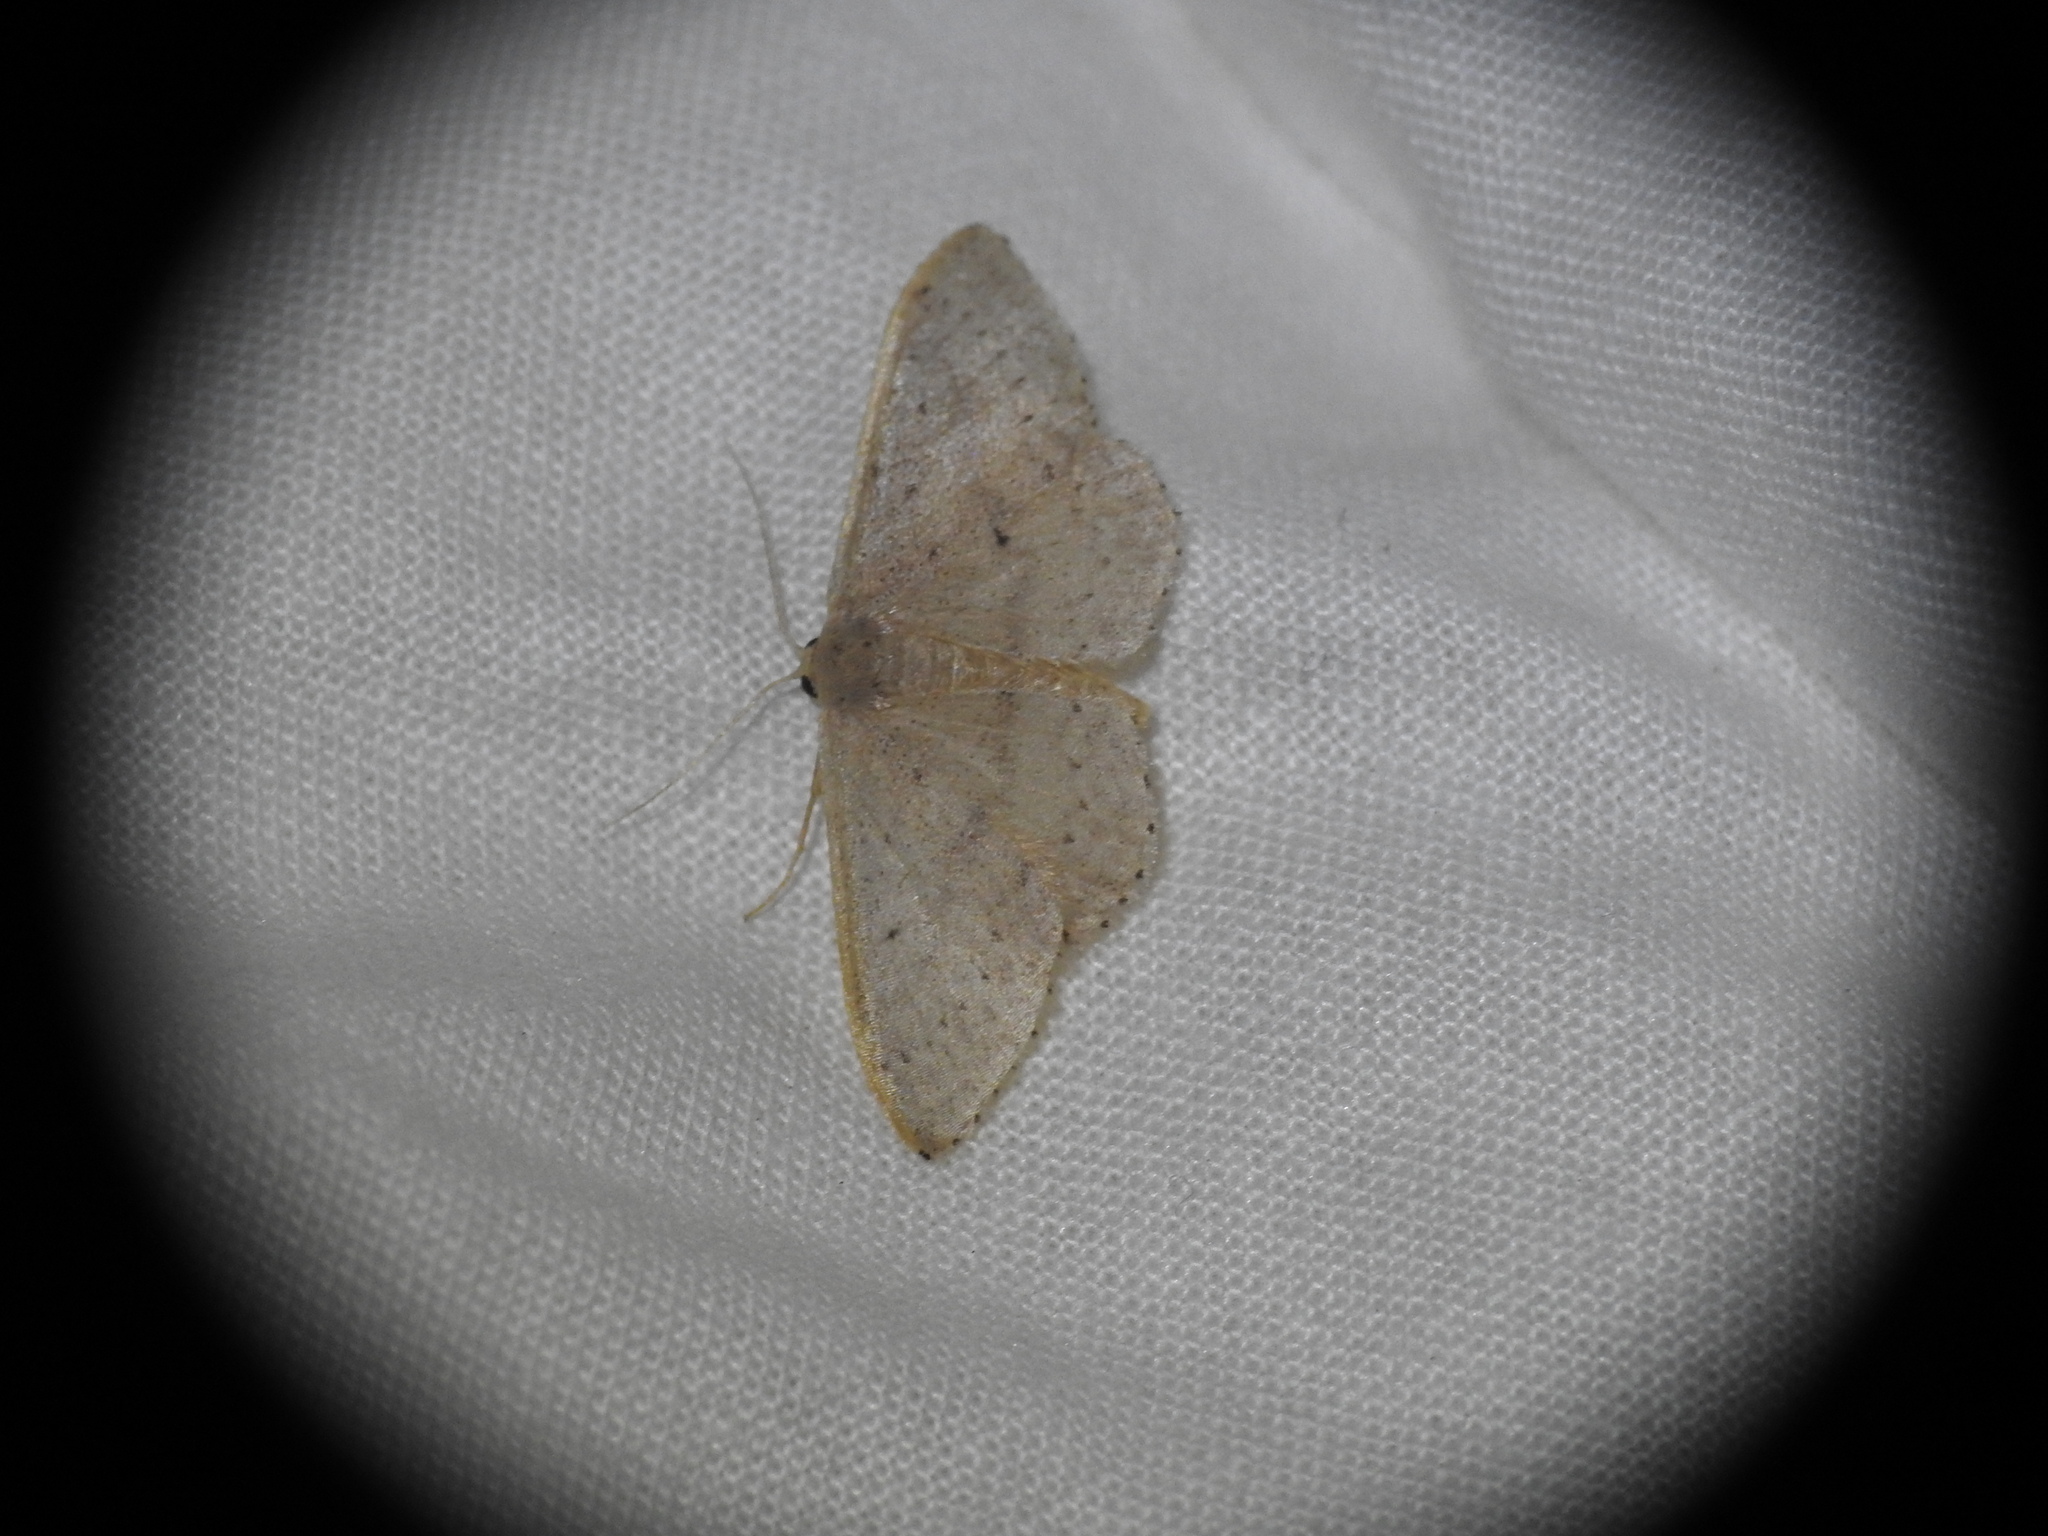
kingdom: Animalia
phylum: Arthropoda
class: Insecta
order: Lepidoptera
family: Geometridae
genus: Idaea
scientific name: Idaea eugeniata
